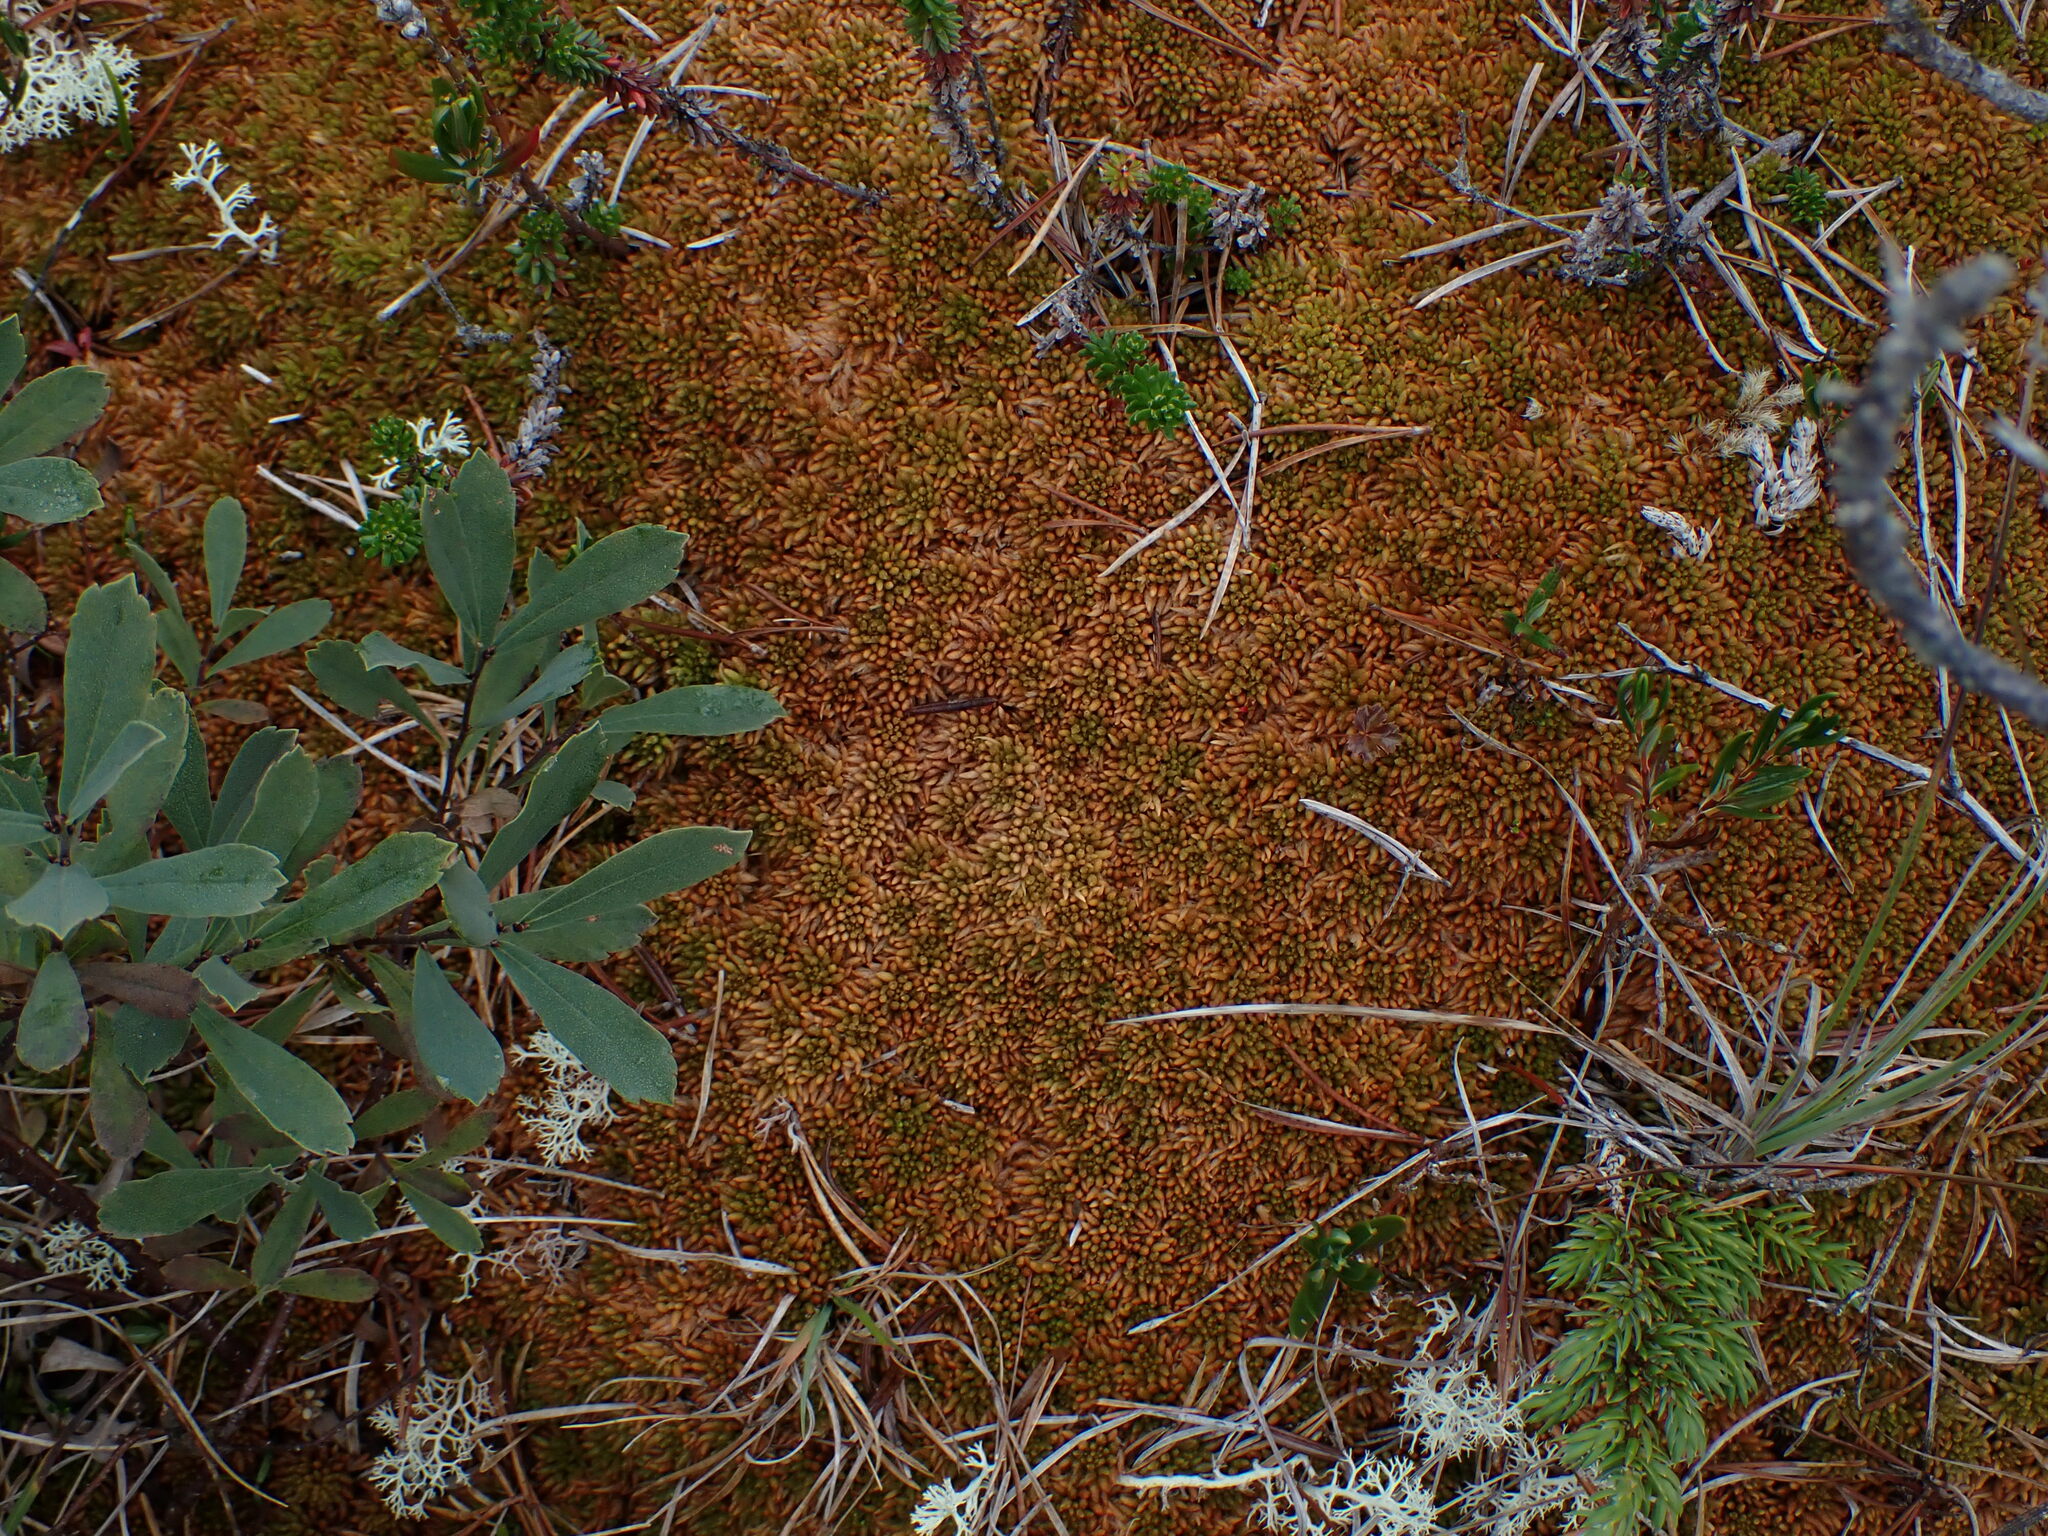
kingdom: Plantae
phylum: Bryophyta
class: Sphagnopsida
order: Sphagnales
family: Sphagnaceae
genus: Sphagnum
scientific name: Sphagnum austinii
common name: Austin's peat moss
